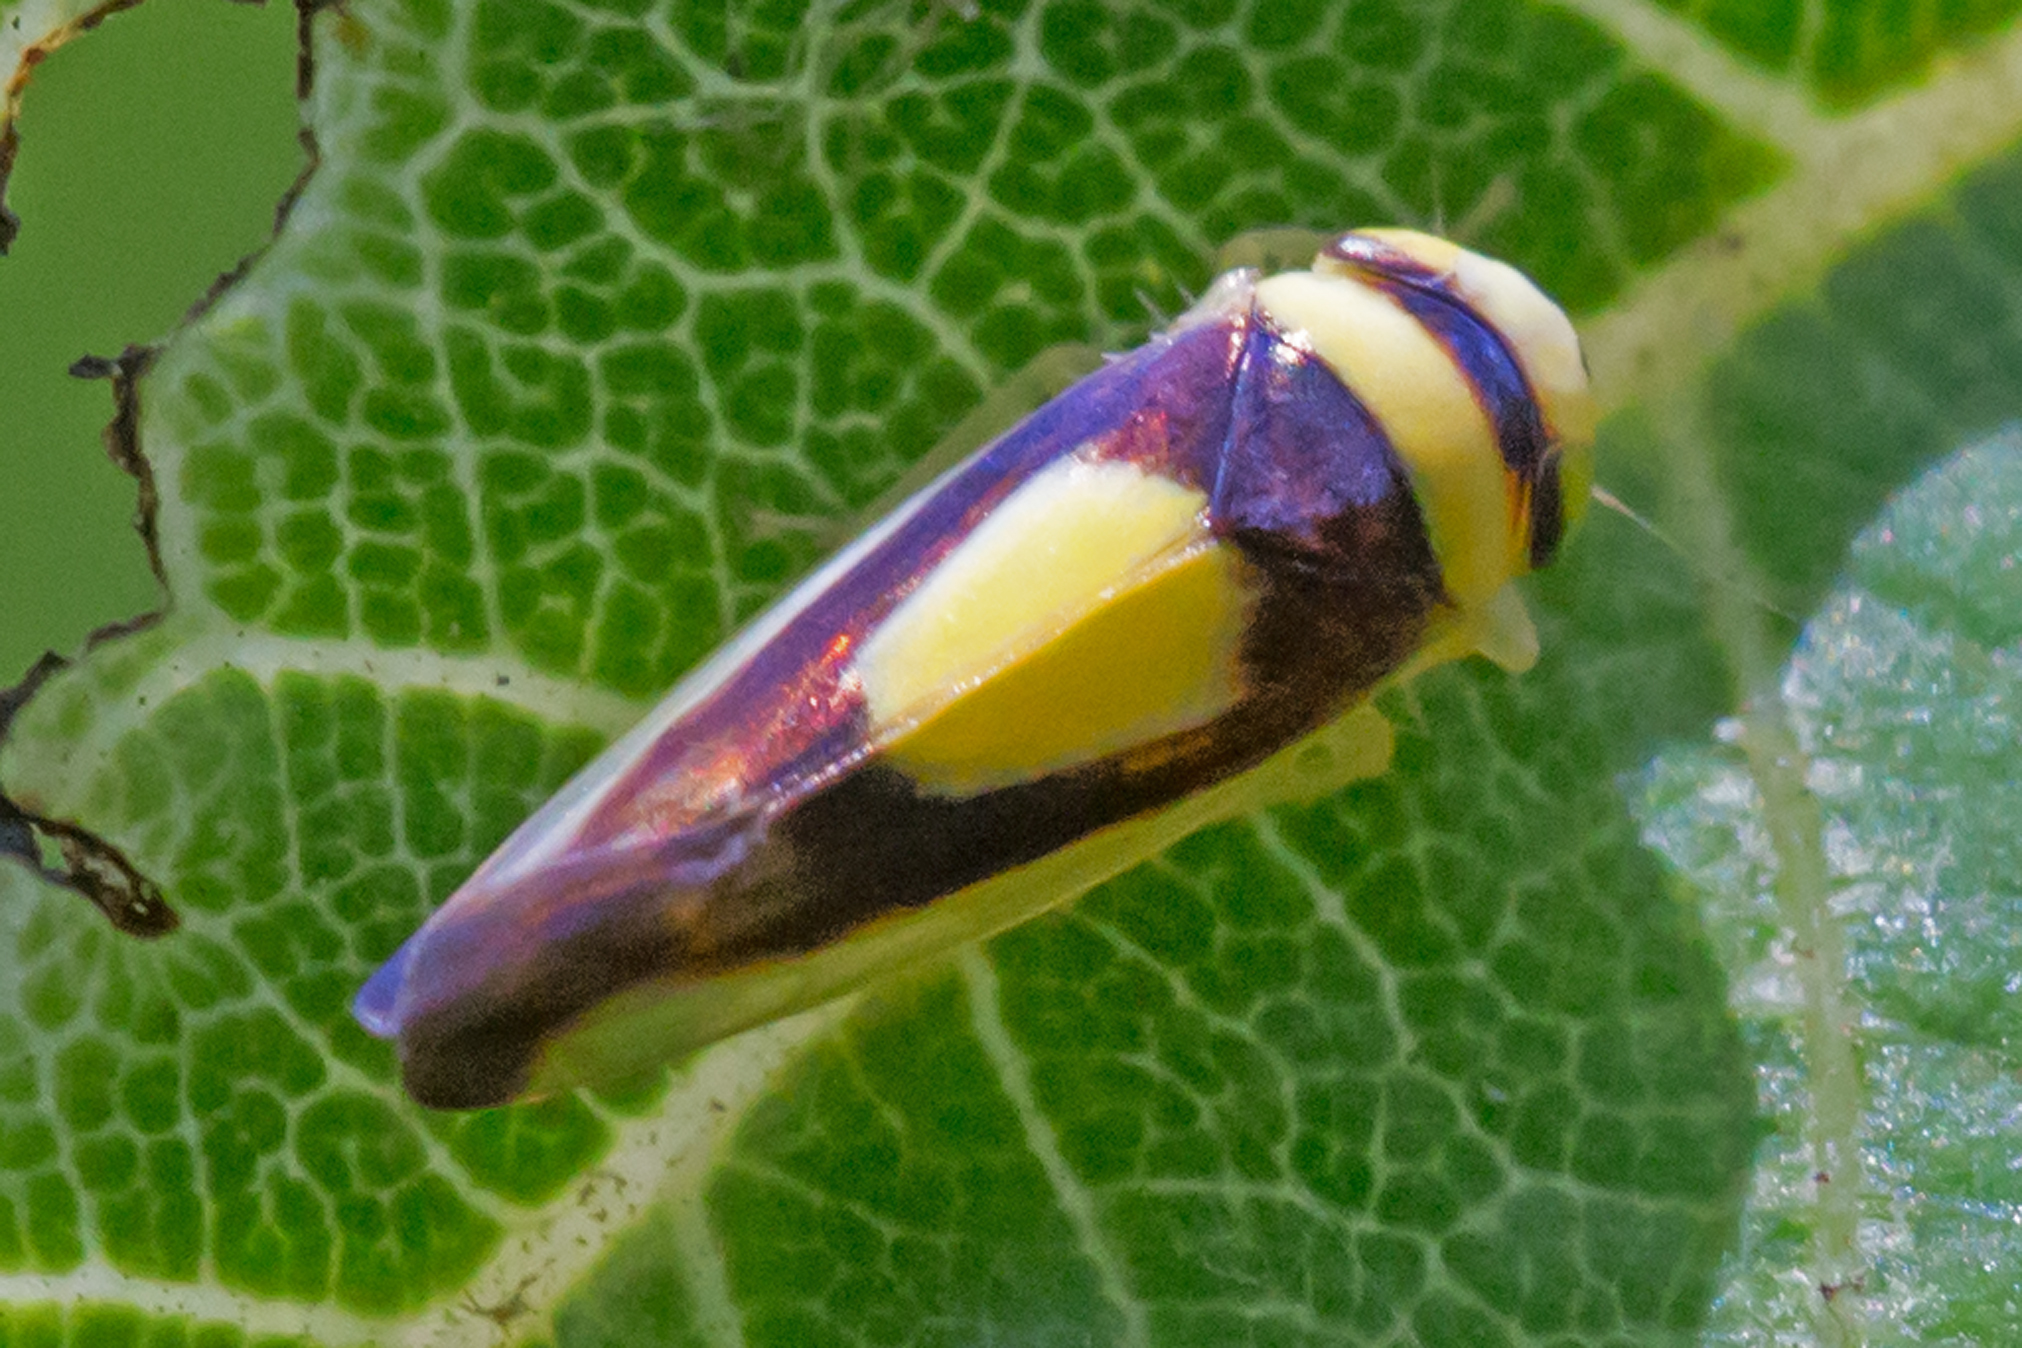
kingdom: Animalia
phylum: Arthropoda
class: Insecta
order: Hemiptera
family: Cicadellidae
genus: Colladonus
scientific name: Colladonus clitellarius
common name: The saddleback leafhopper
